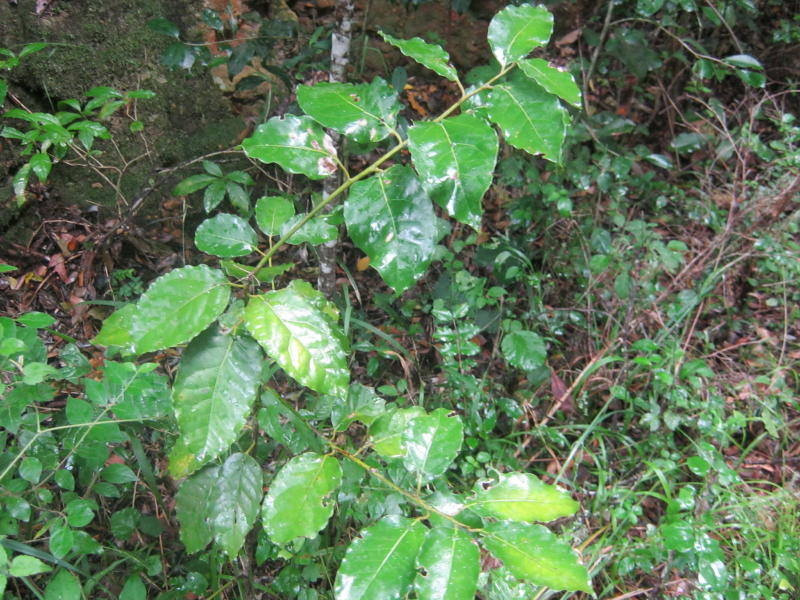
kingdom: Plantae
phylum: Tracheophyta
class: Magnoliopsida
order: Laurales
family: Lauraceae
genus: Ocotea
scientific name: Ocotea bullata
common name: Black stinkwood
